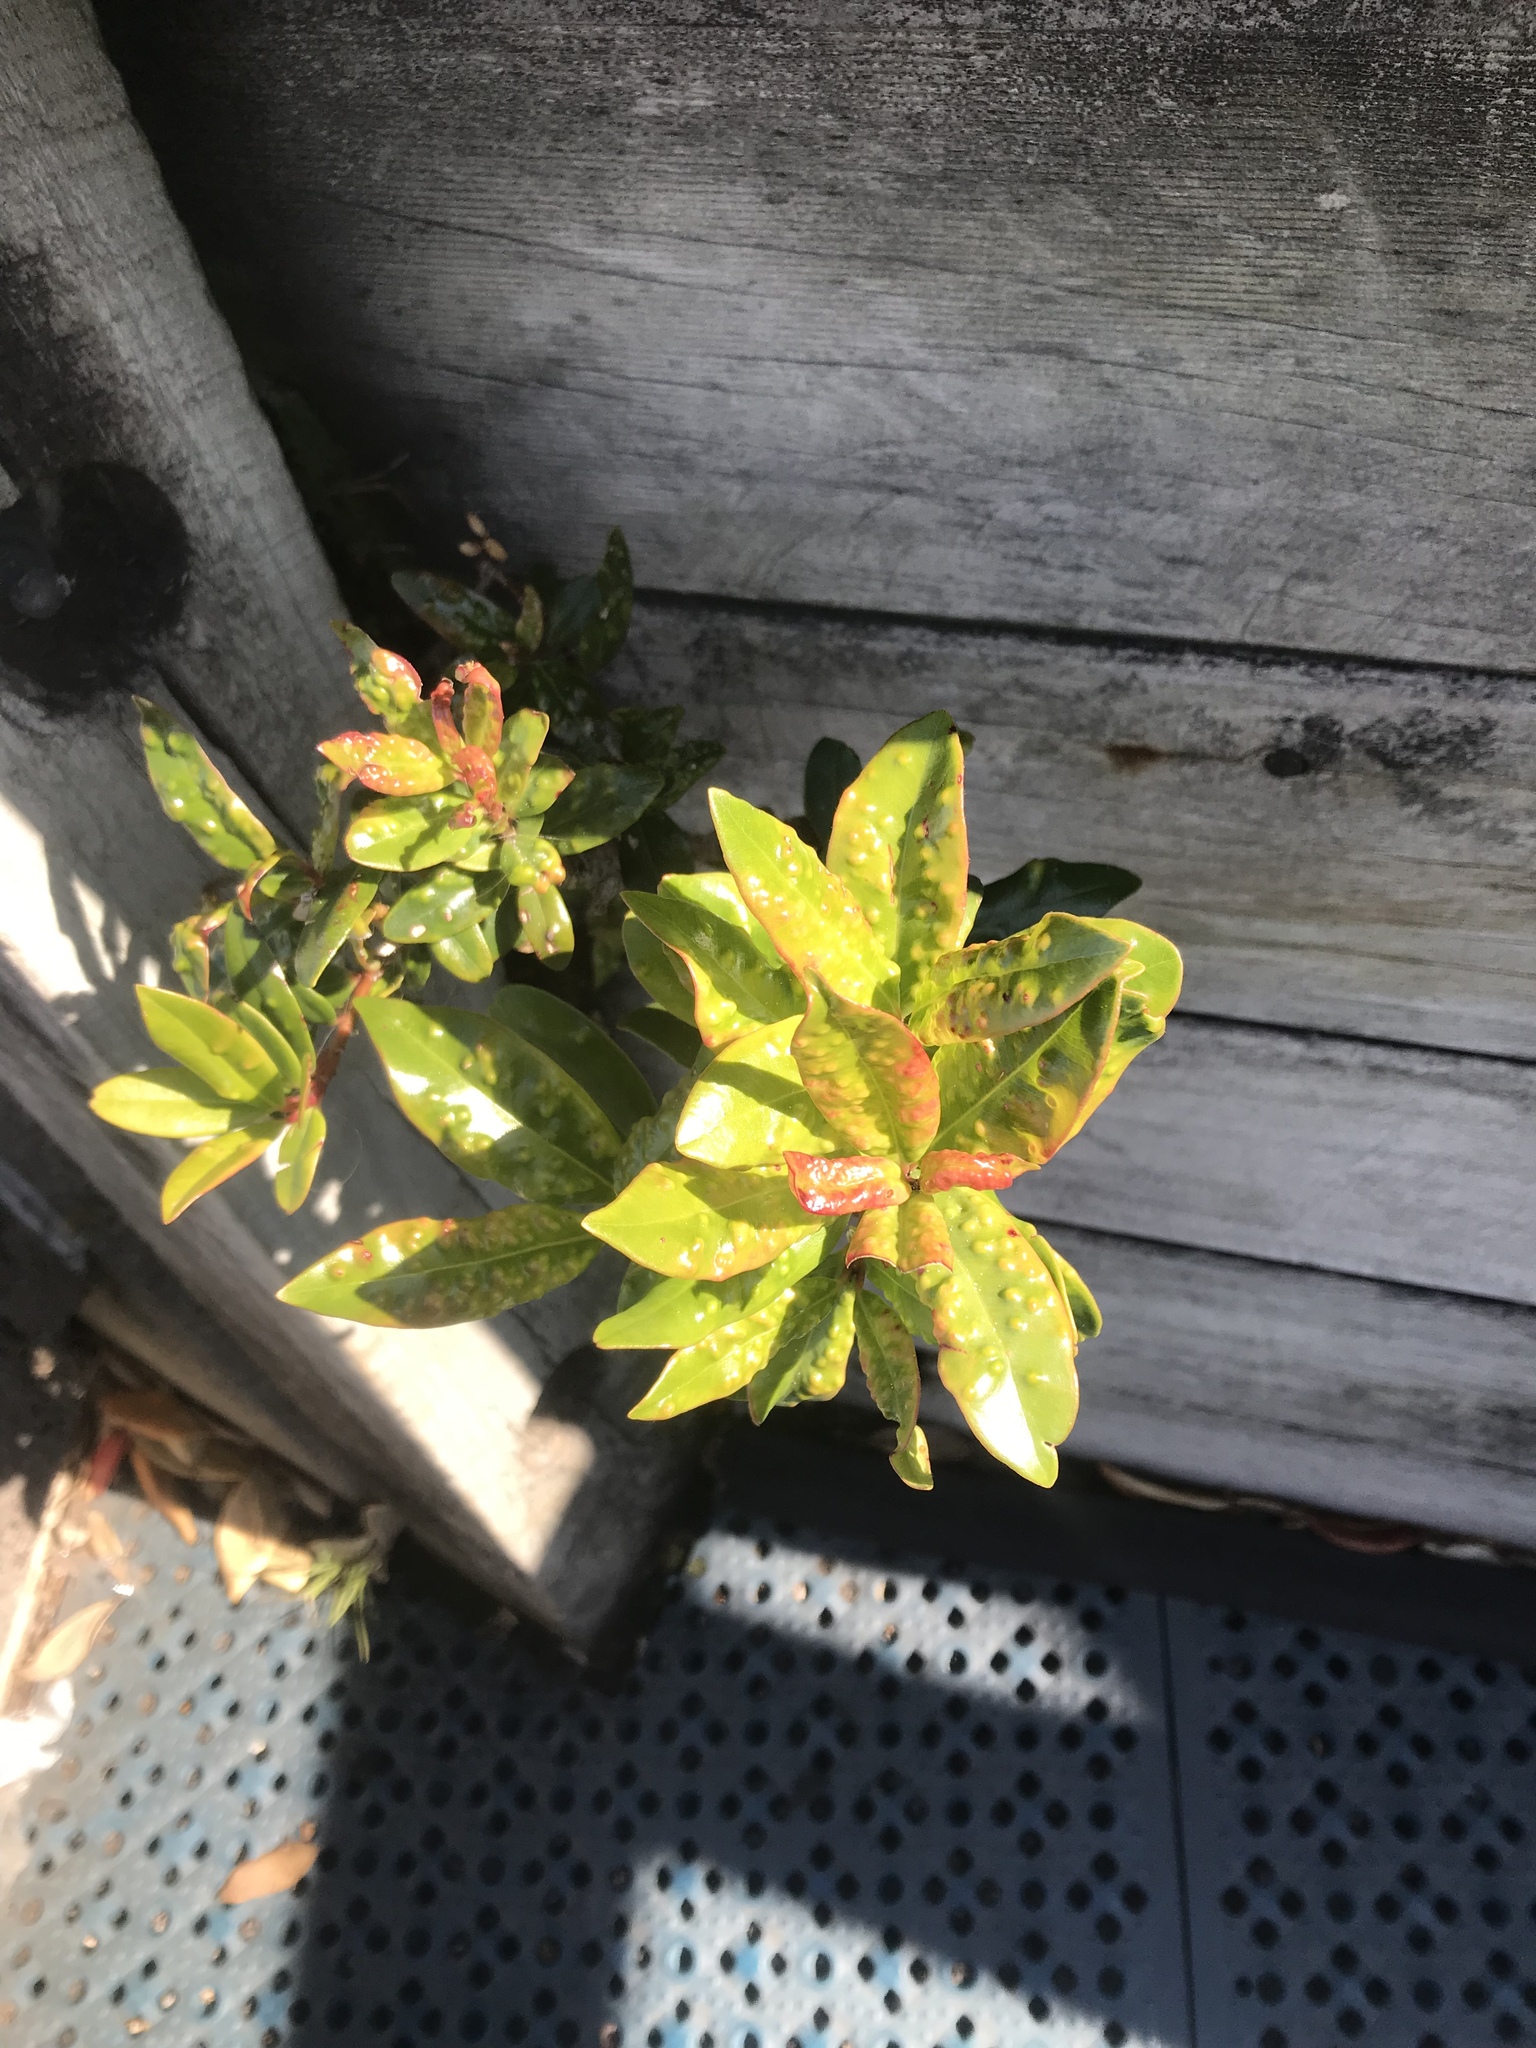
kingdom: Plantae
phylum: Tracheophyta
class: Magnoliopsida
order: Myrtales
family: Myrtaceae
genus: Metrosideros
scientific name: Metrosideros excelsa
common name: New zealand christmastree
